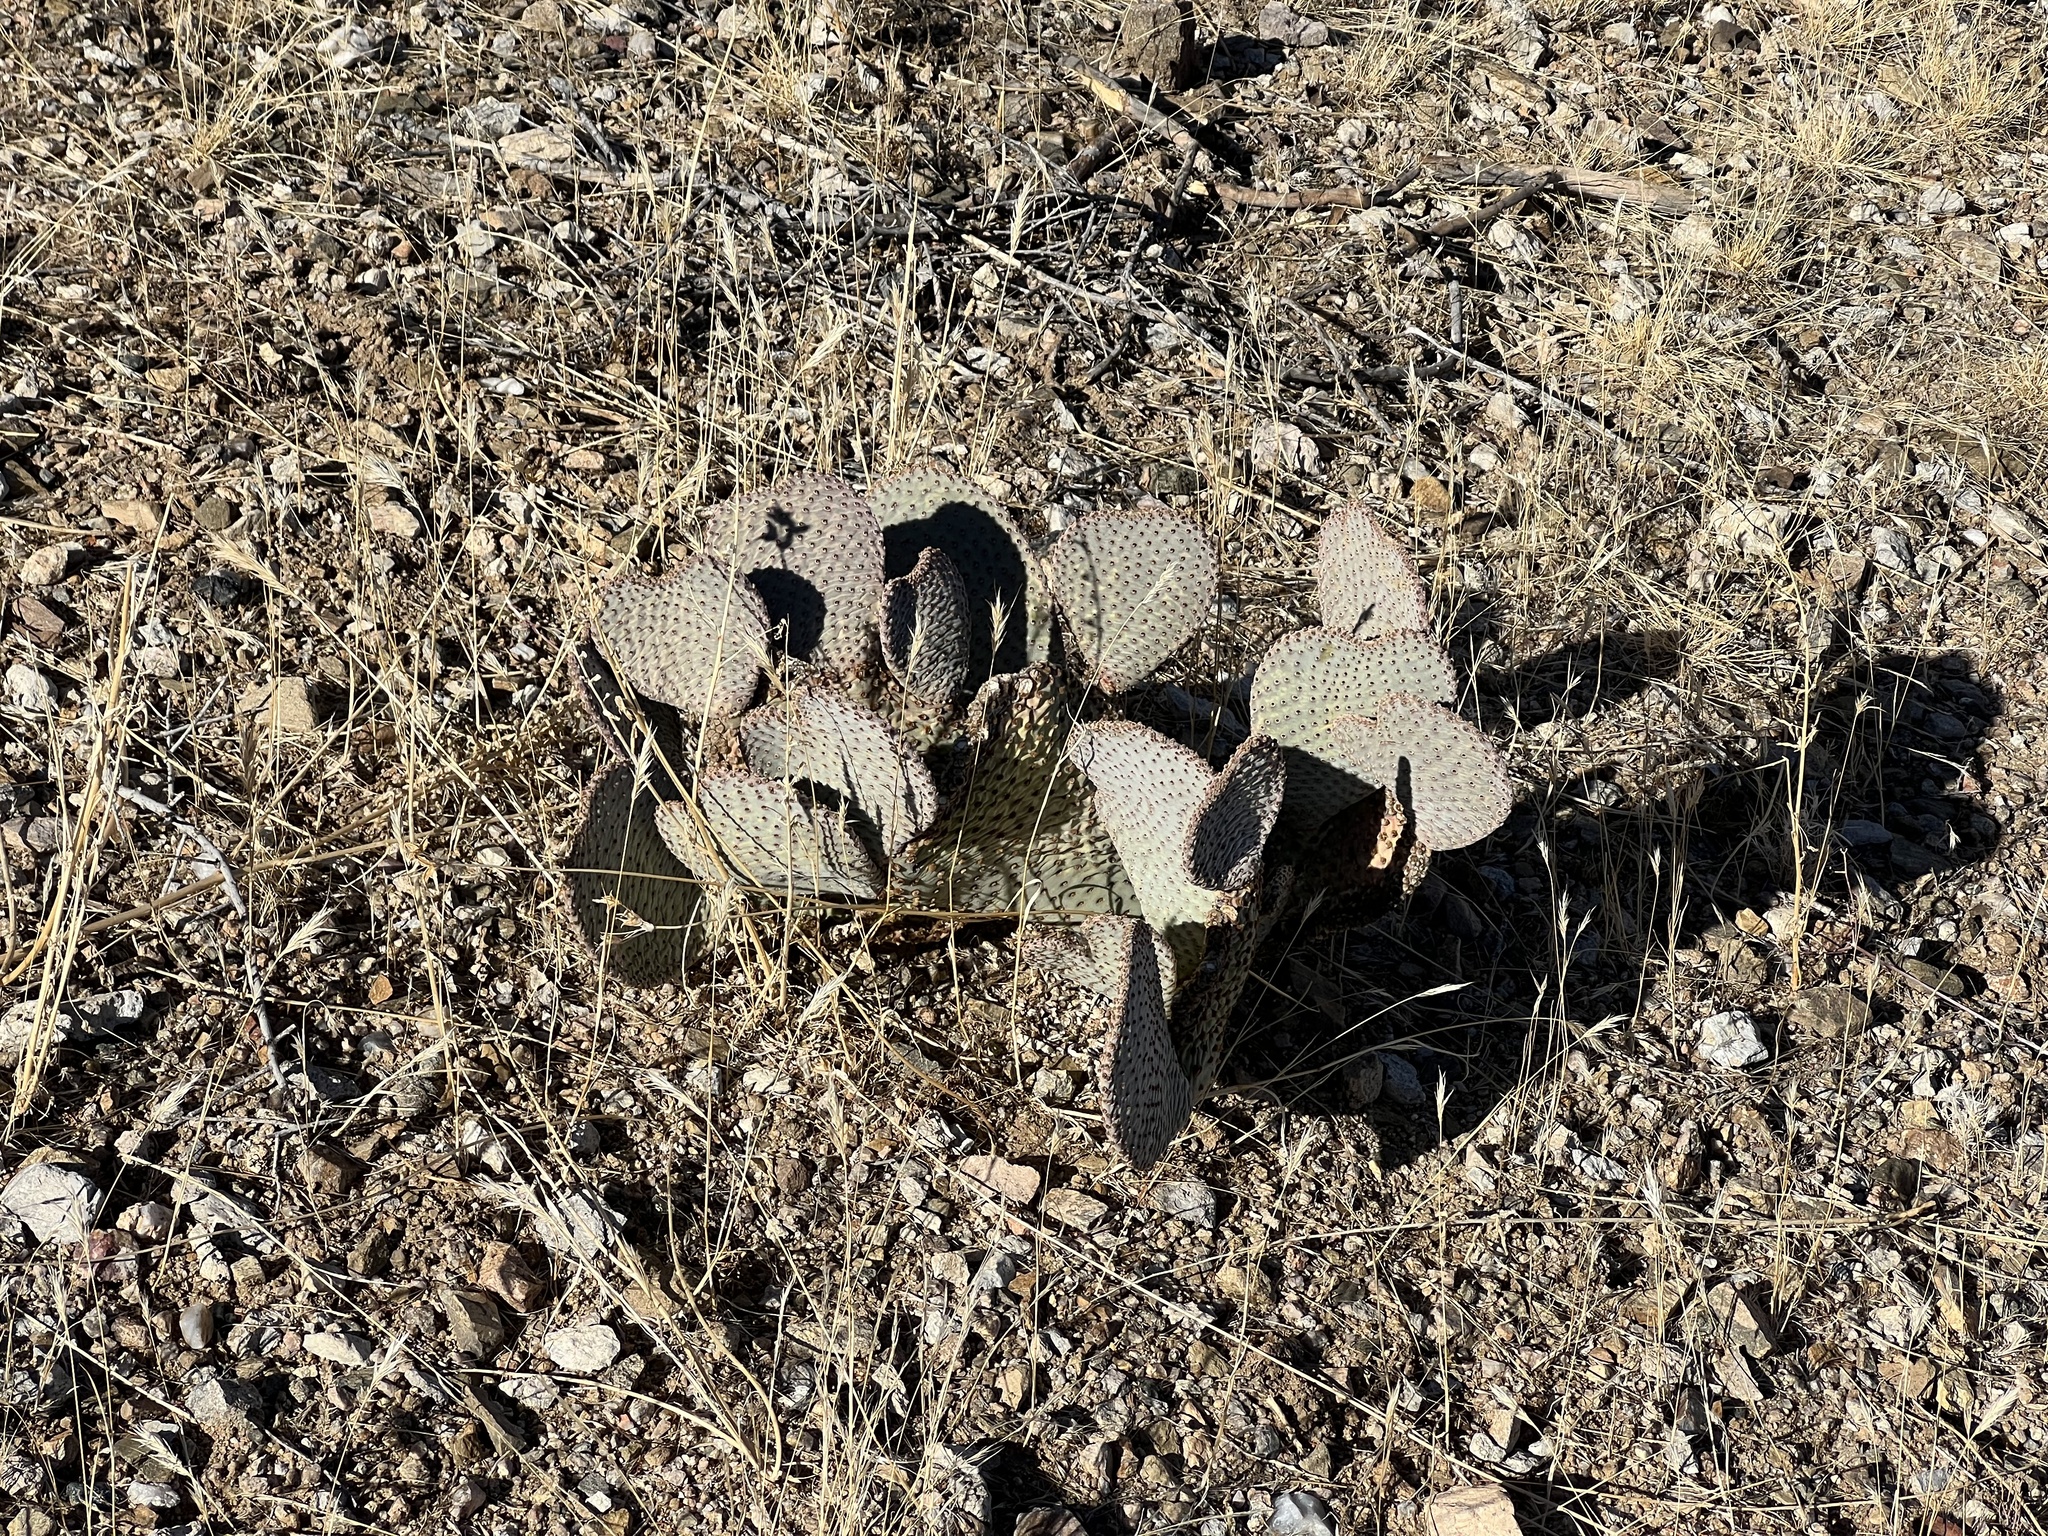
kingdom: Plantae
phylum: Tracheophyta
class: Magnoliopsida
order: Caryophyllales
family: Cactaceae
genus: Opuntia
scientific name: Opuntia basilaris
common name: Beavertail prickly-pear
